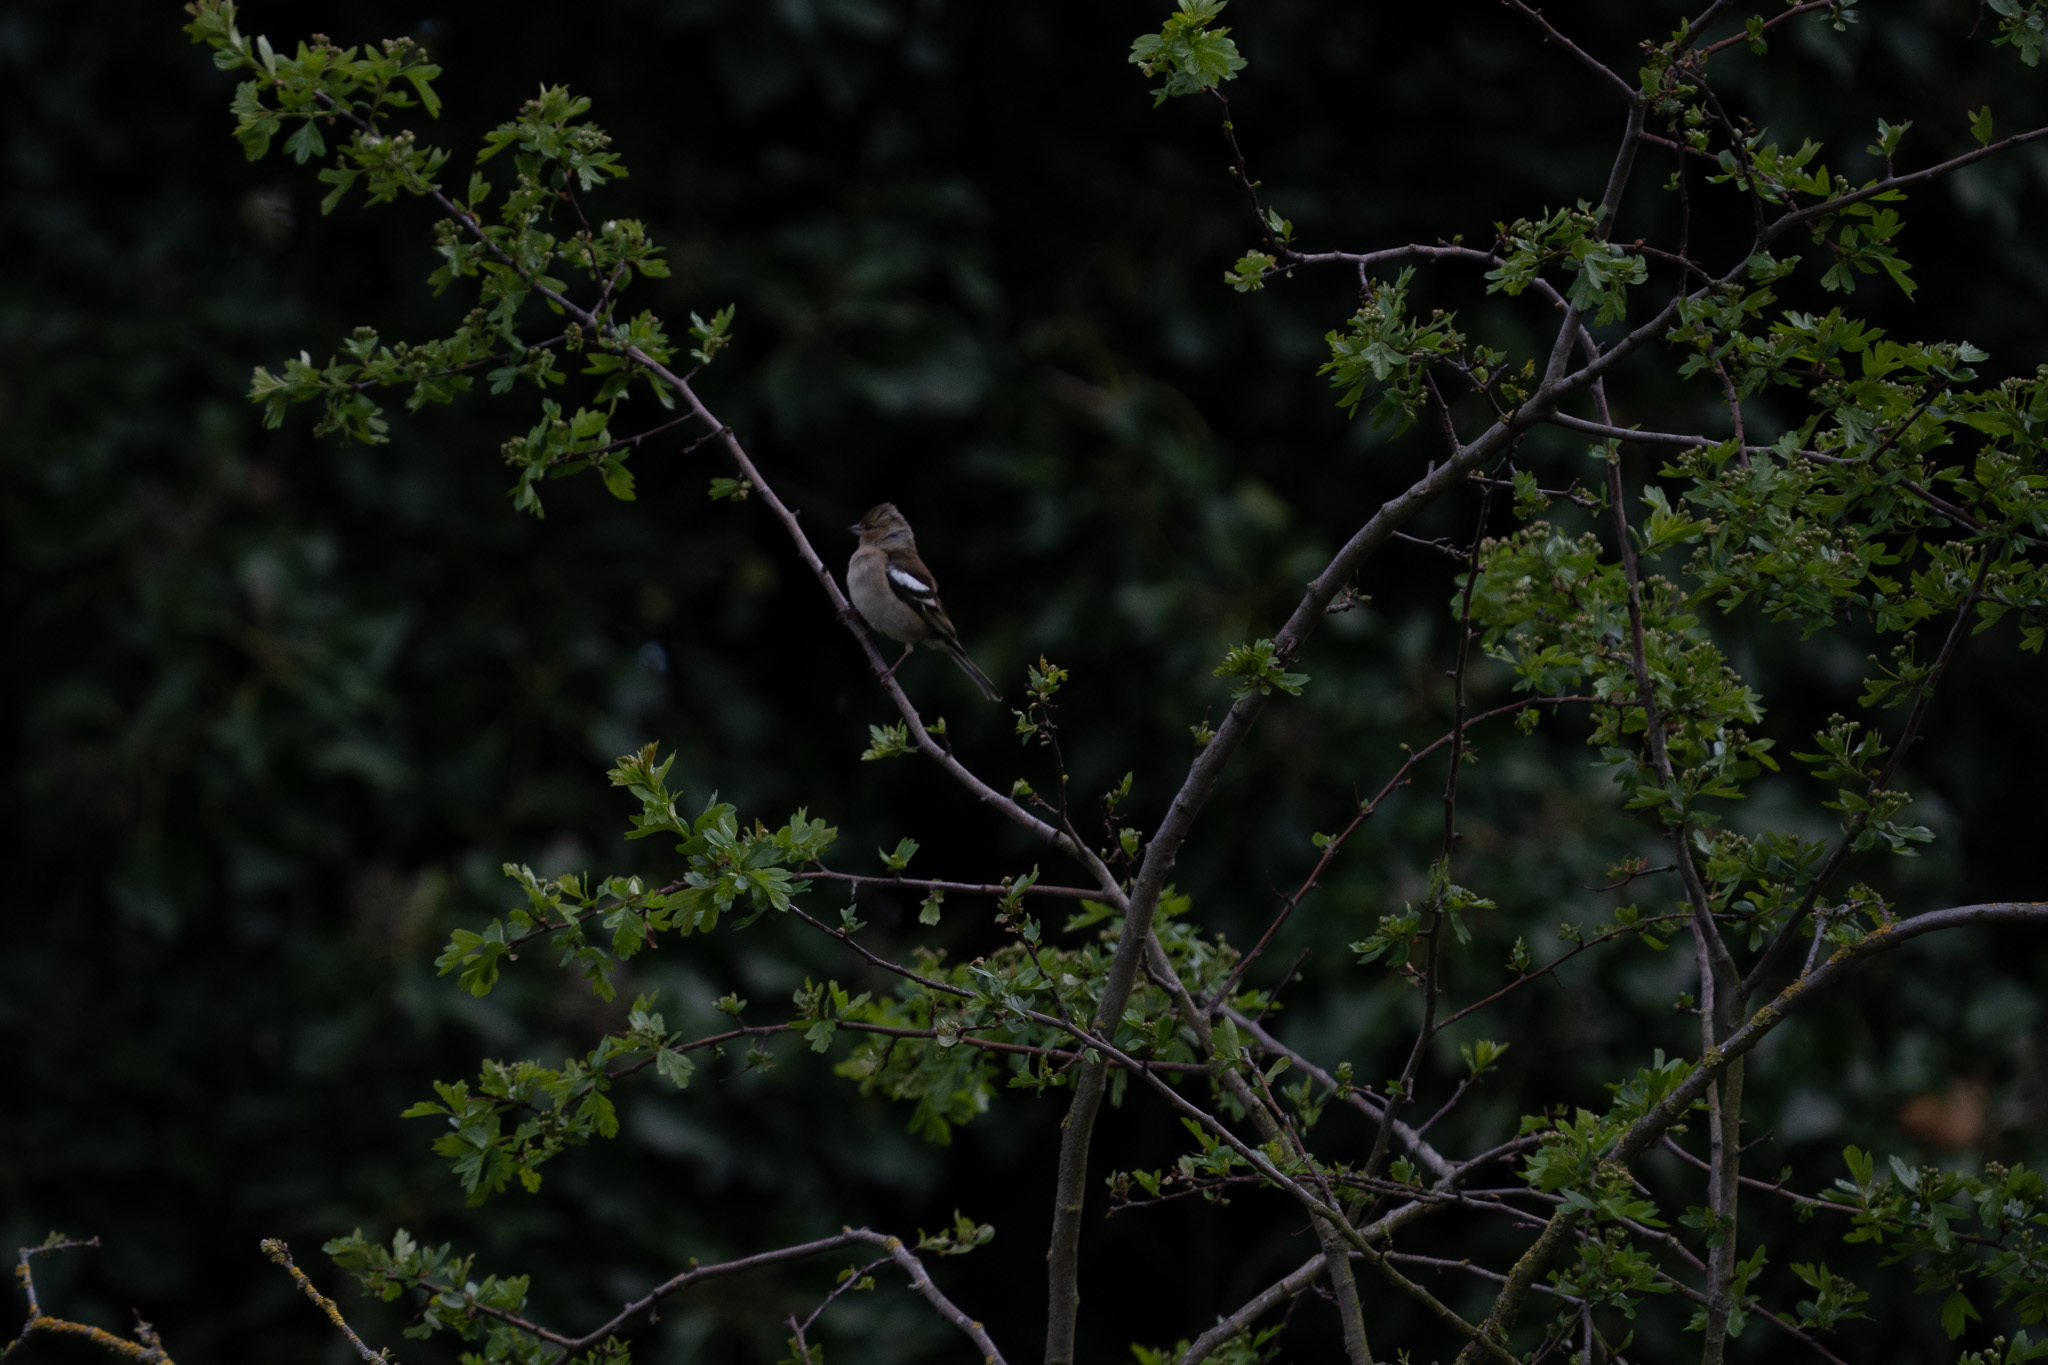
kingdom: Animalia
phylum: Chordata
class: Aves
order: Passeriformes
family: Fringillidae
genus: Fringilla
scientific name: Fringilla coelebs
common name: Common chaffinch
